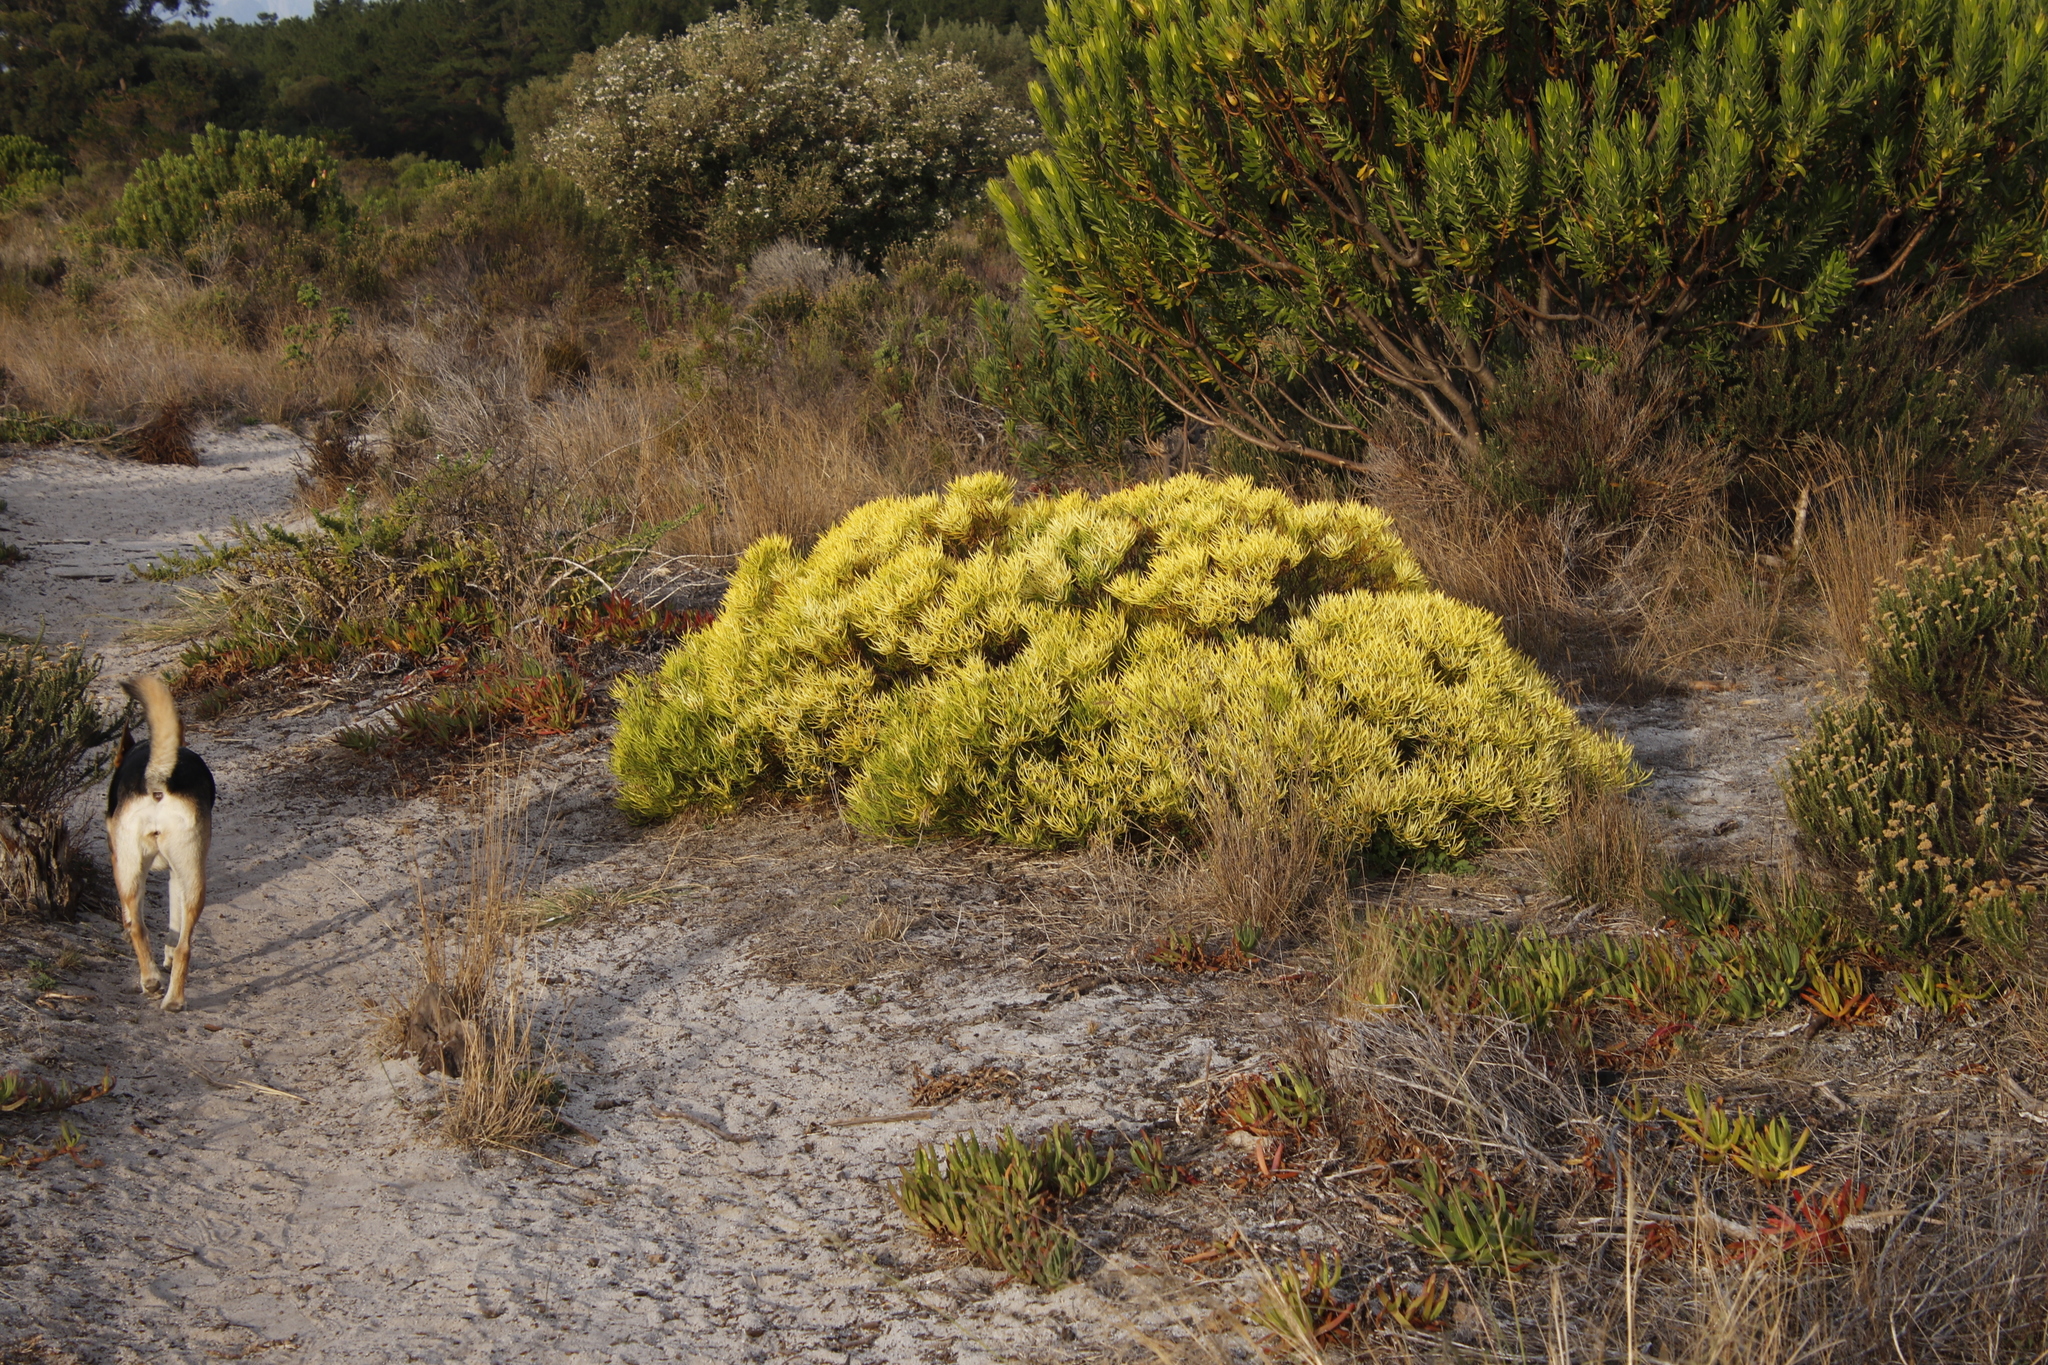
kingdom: Plantae
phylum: Tracheophyta
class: Magnoliopsida
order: Proteales
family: Proteaceae
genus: Leucadendron
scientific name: Leucadendron salignum
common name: Common sunshine conebush
